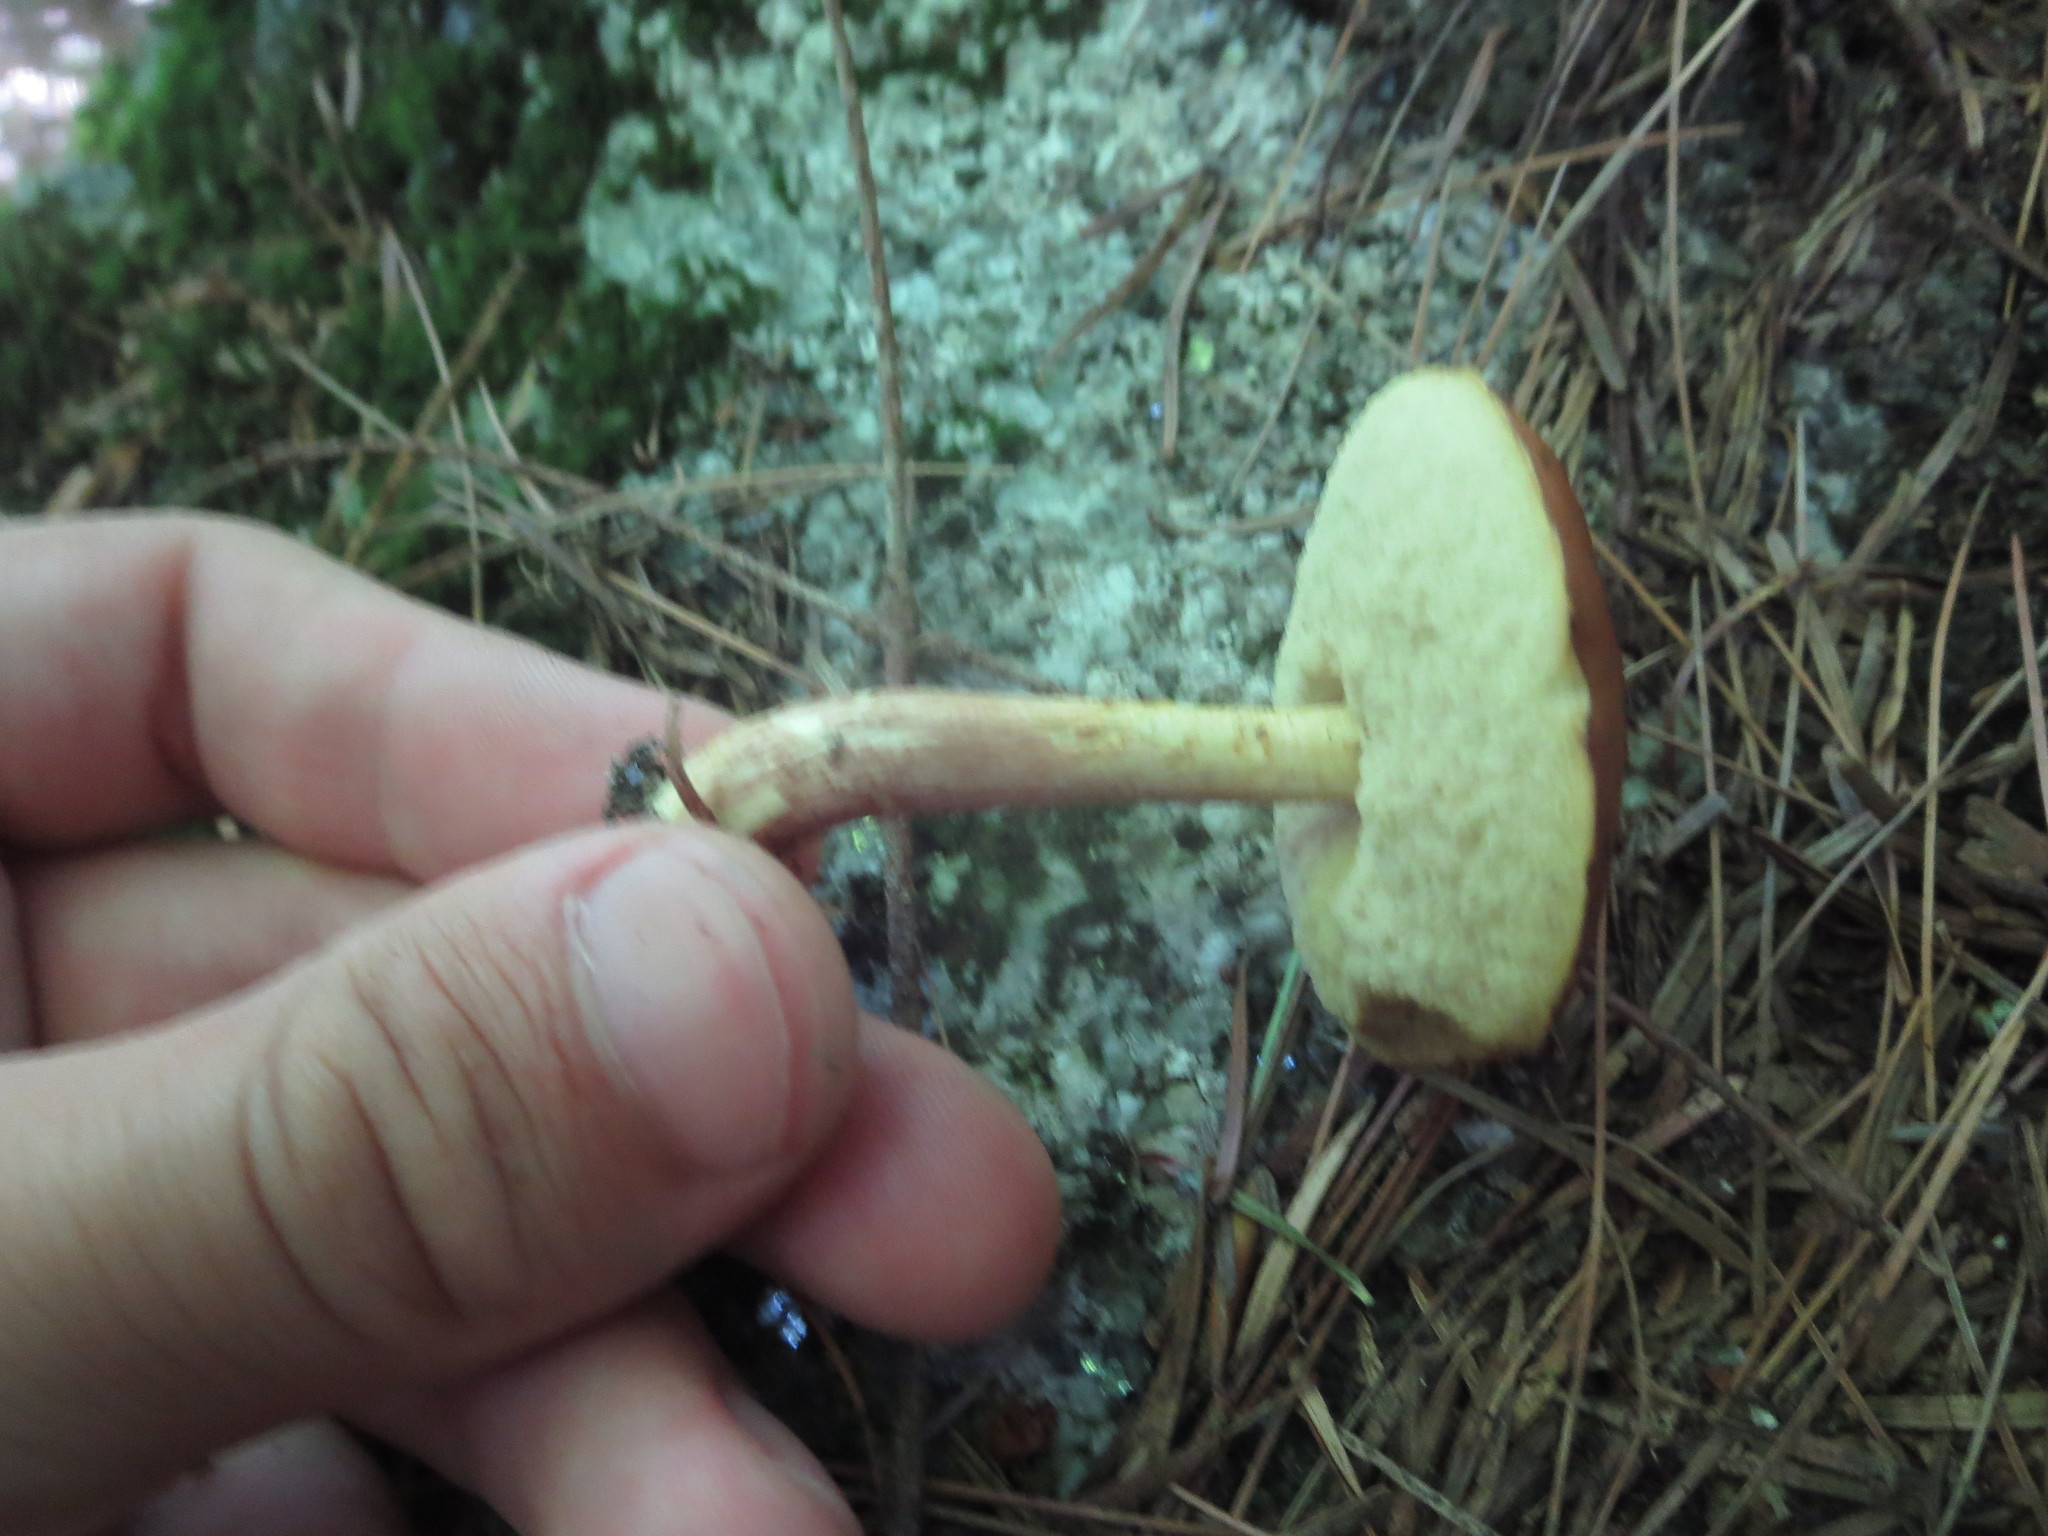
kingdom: Fungi
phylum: Basidiomycota
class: Agaricomycetes
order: Boletales
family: Boletaceae
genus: Leccinum
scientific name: Leccinum longicurvipes
